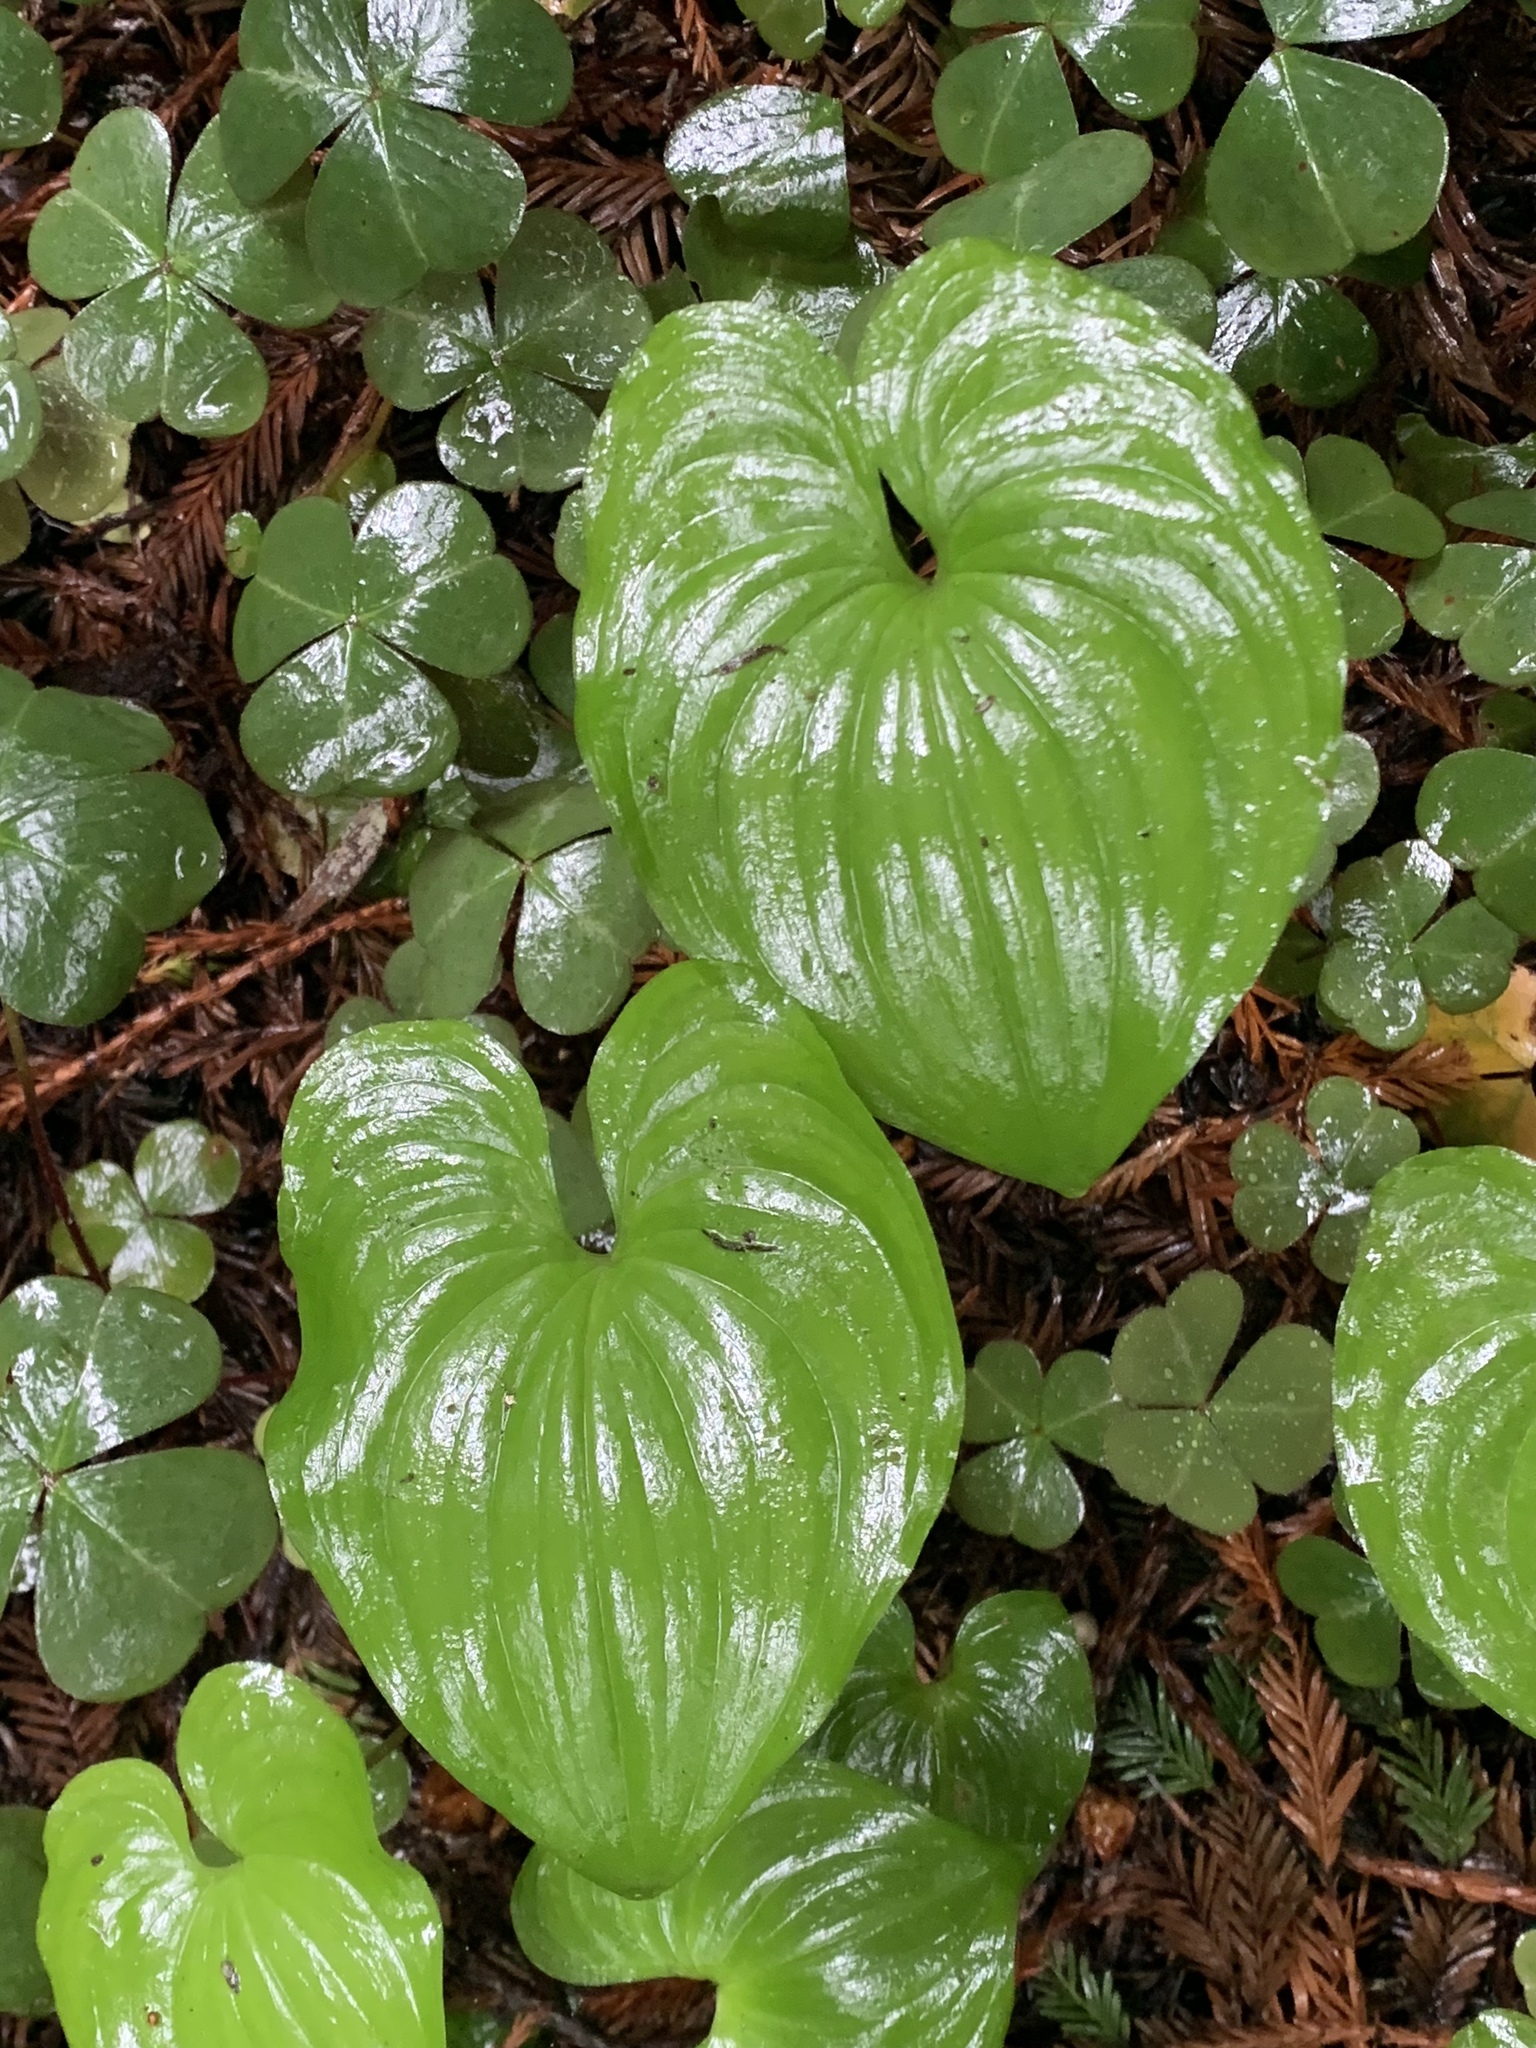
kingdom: Plantae
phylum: Tracheophyta
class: Liliopsida
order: Asparagales
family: Asparagaceae
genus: Maianthemum
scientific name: Maianthemum dilatatum
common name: False lily-of-the-valley
